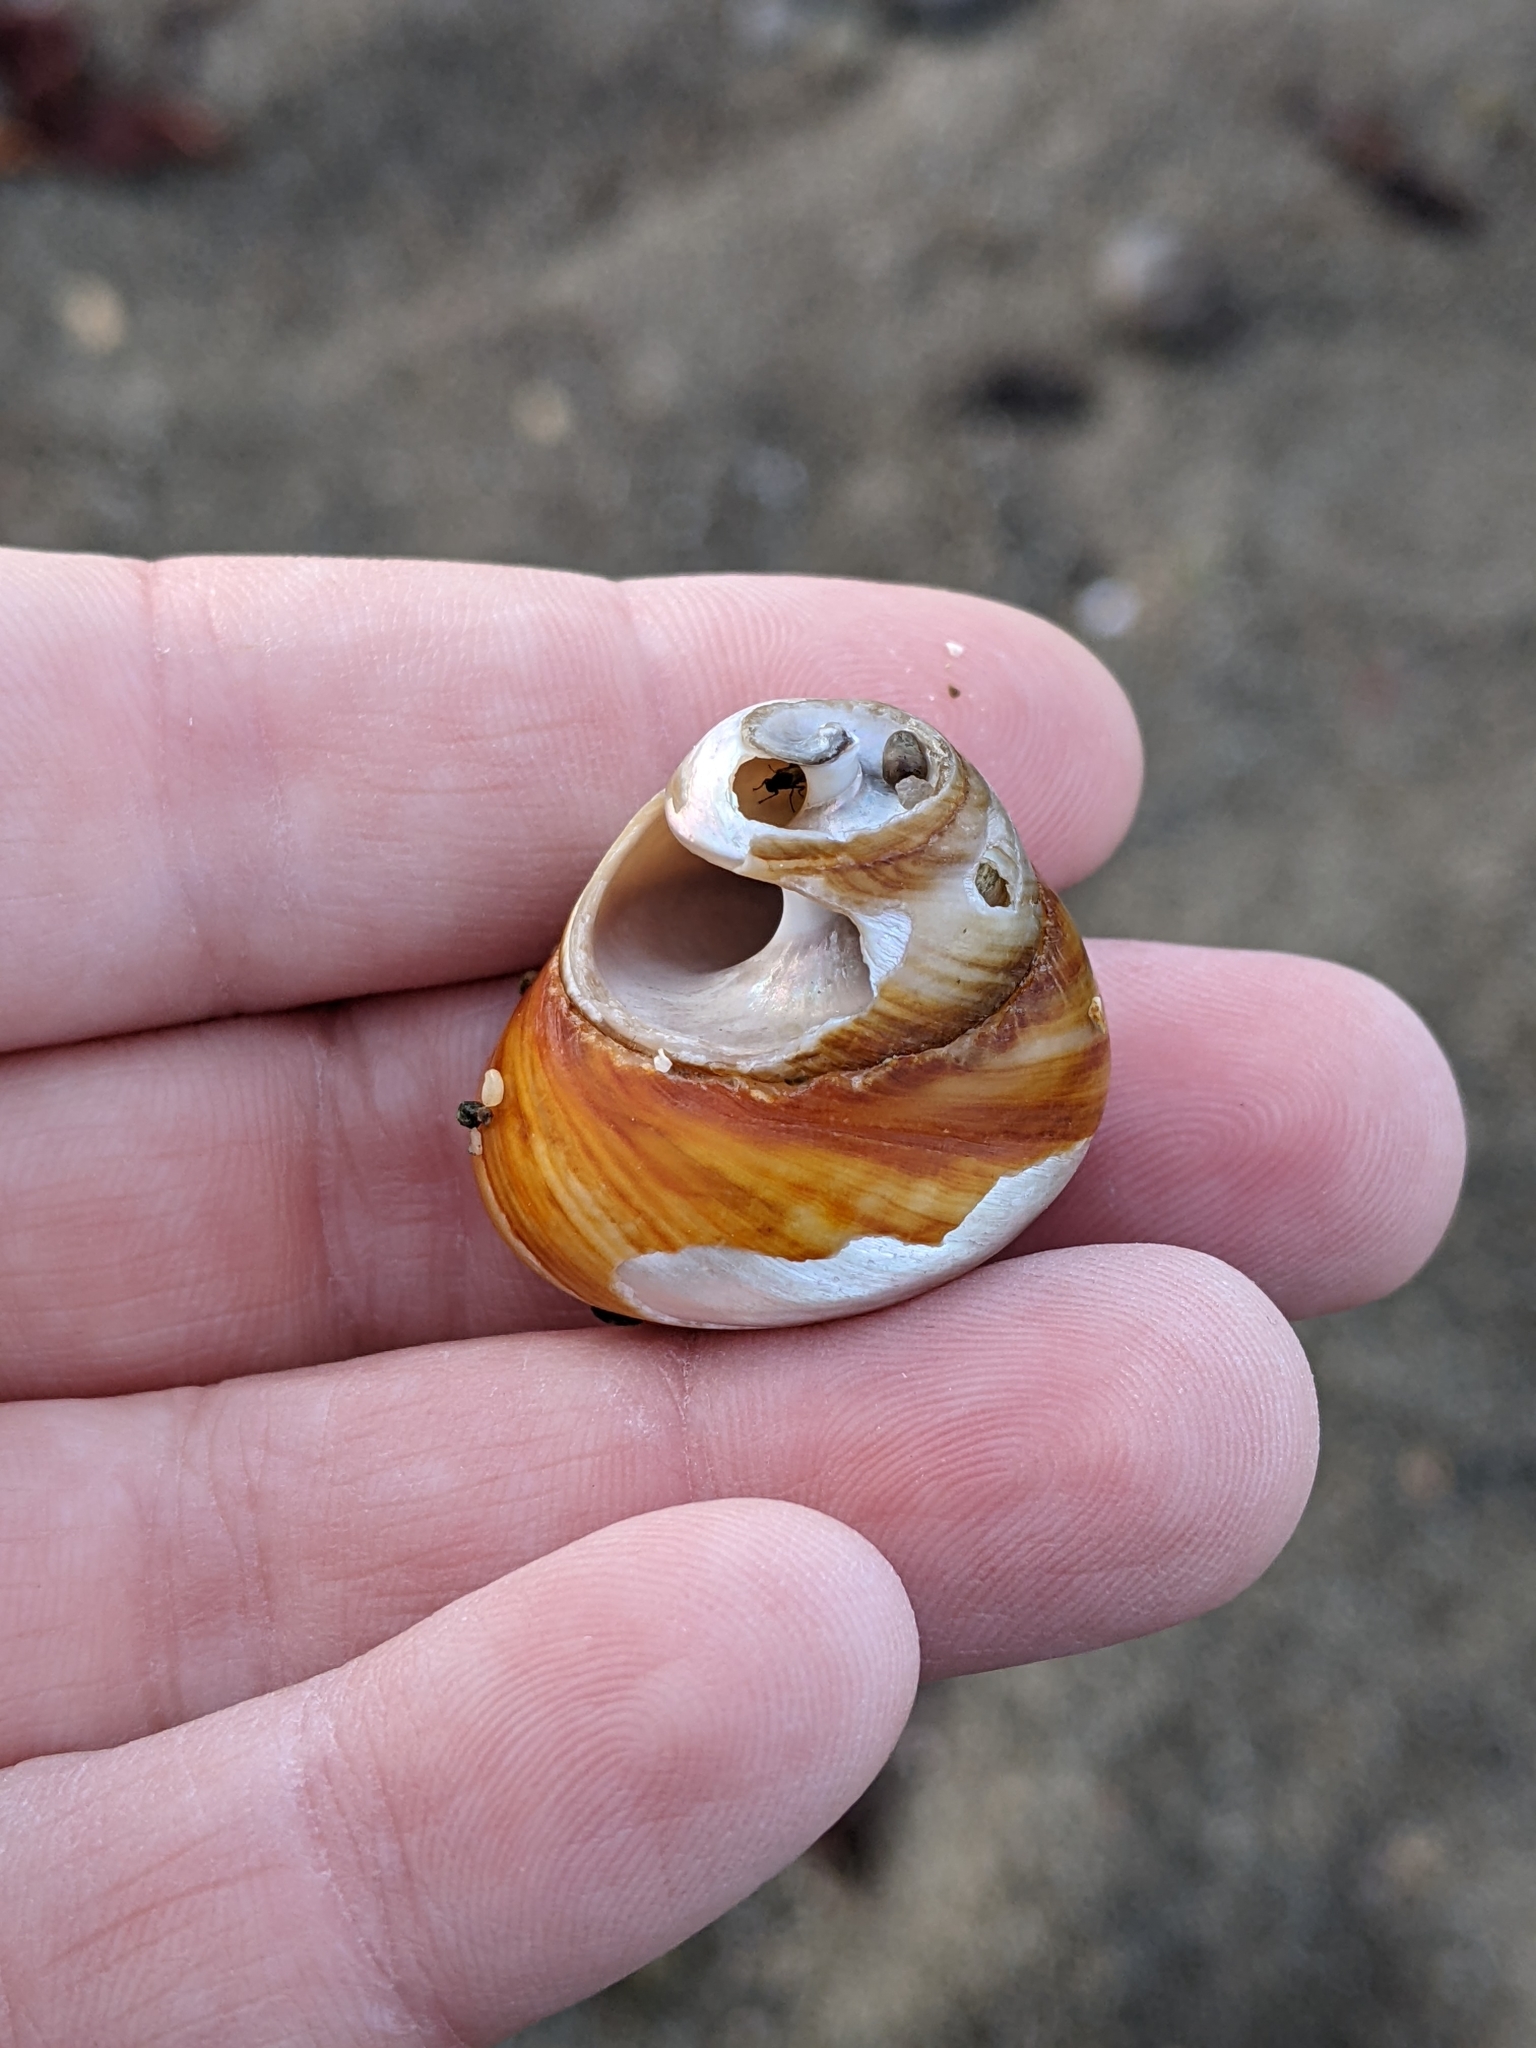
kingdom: Animalia
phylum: Mollusca
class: Gastropoda
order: Trochida
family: Tegulidae
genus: Tegula
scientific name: Tegula brunnea
